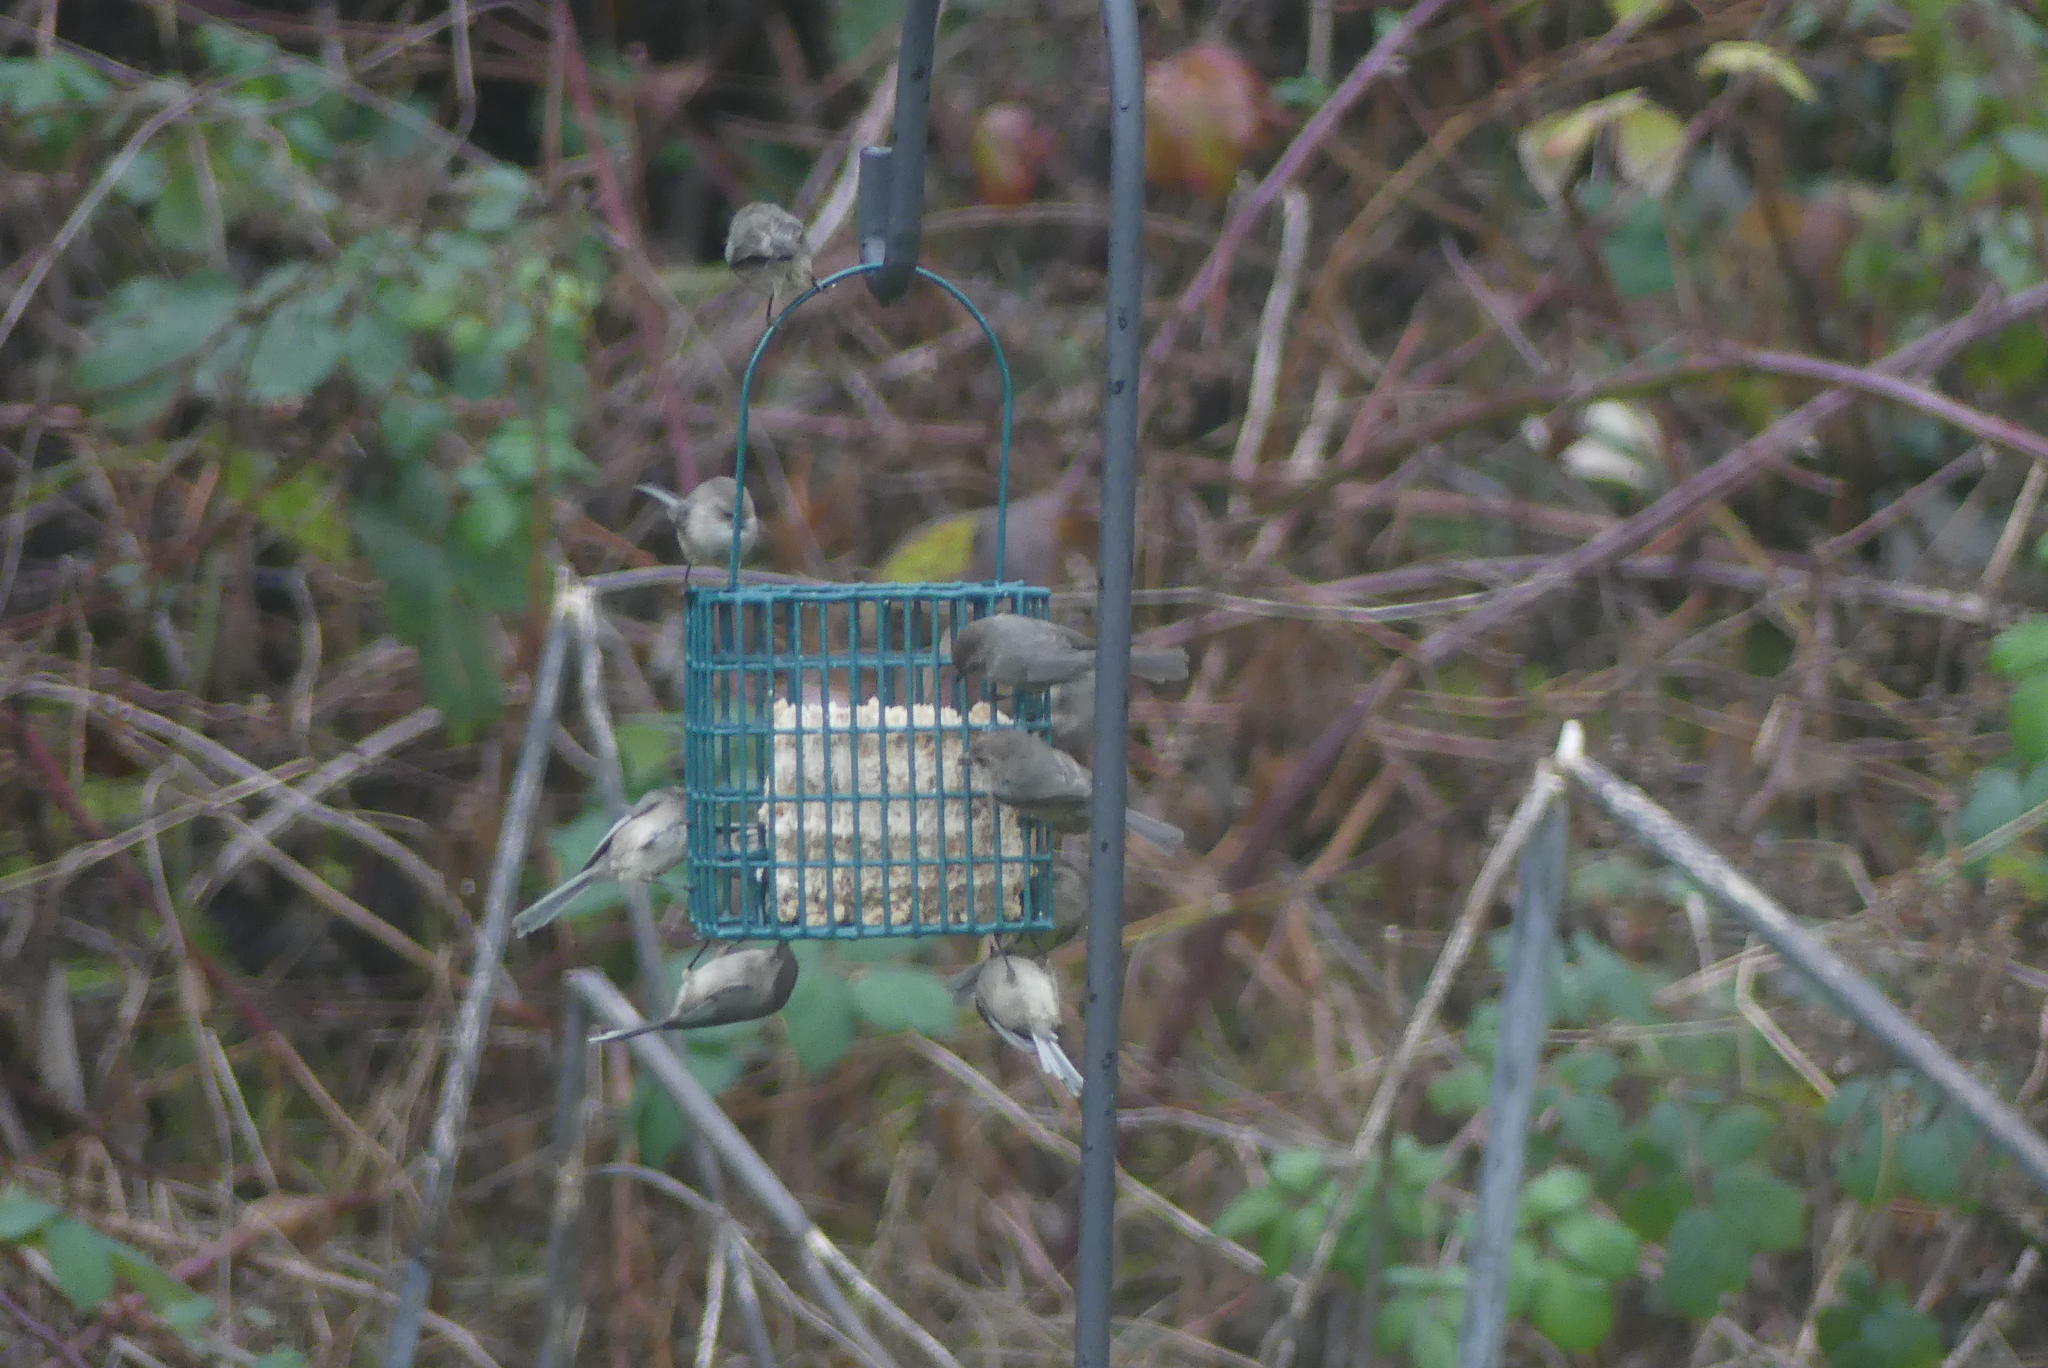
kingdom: Animalia
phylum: Chordata
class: Aves
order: Passeriformes
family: Aegithalidae
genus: Psaltriparus
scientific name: Psaltriparus minimus
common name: American bushtit
